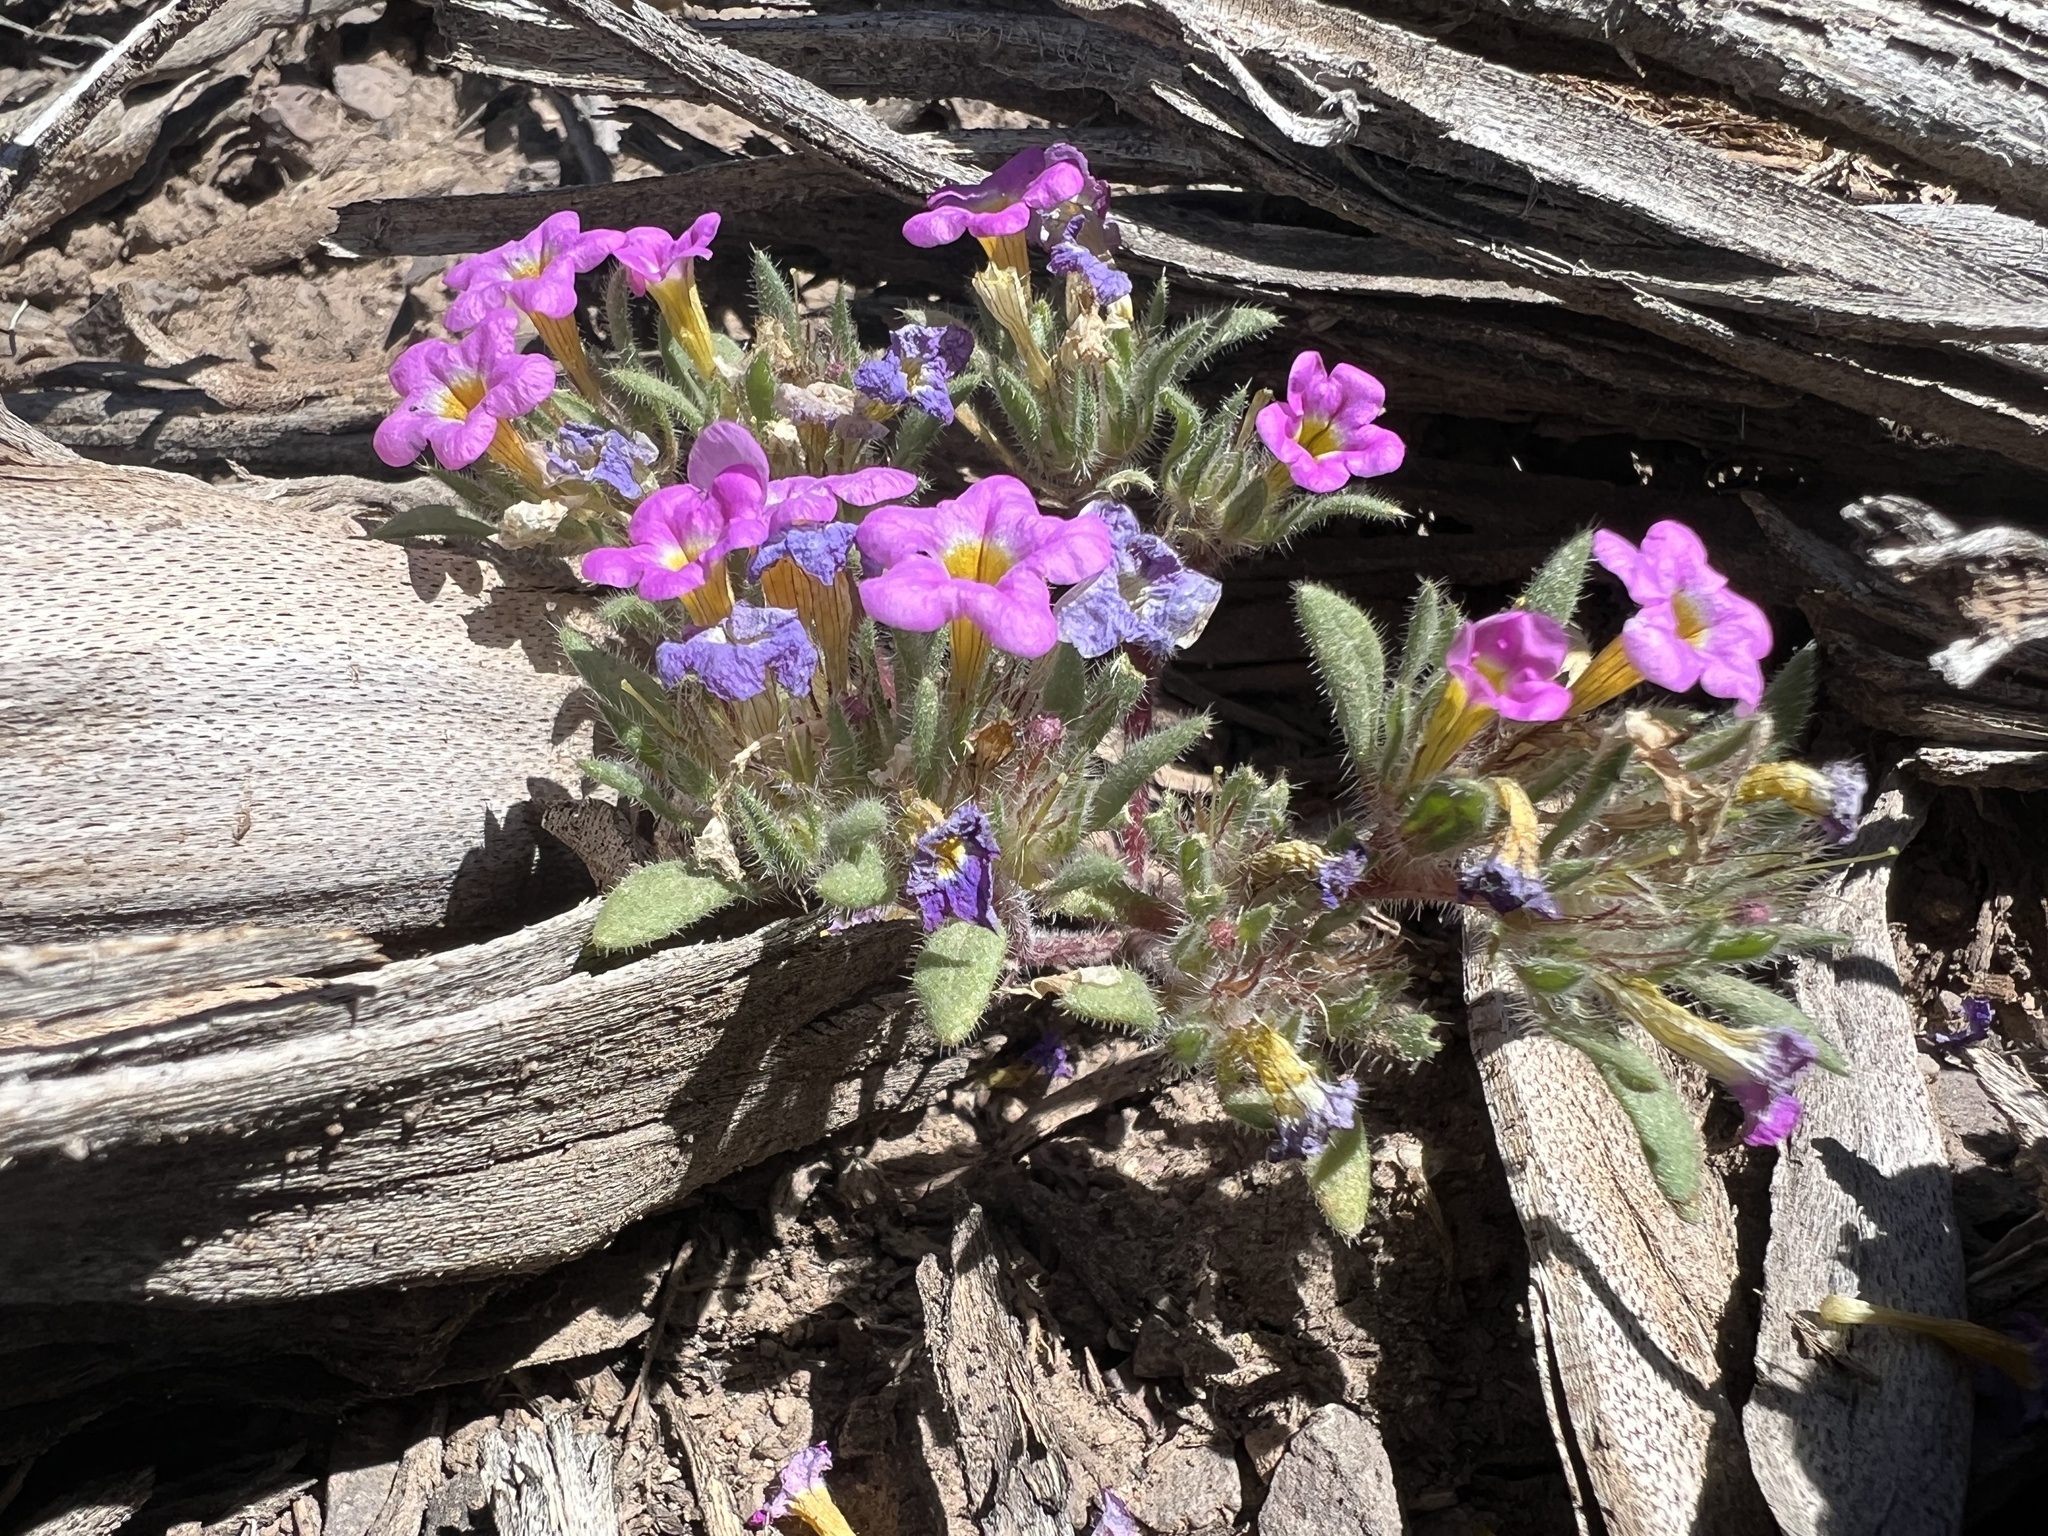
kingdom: Plantae
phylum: Tracheophyta
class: Magnoliopsida
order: Boraginales
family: Namaceae
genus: Nama
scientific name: Nama aretioides
